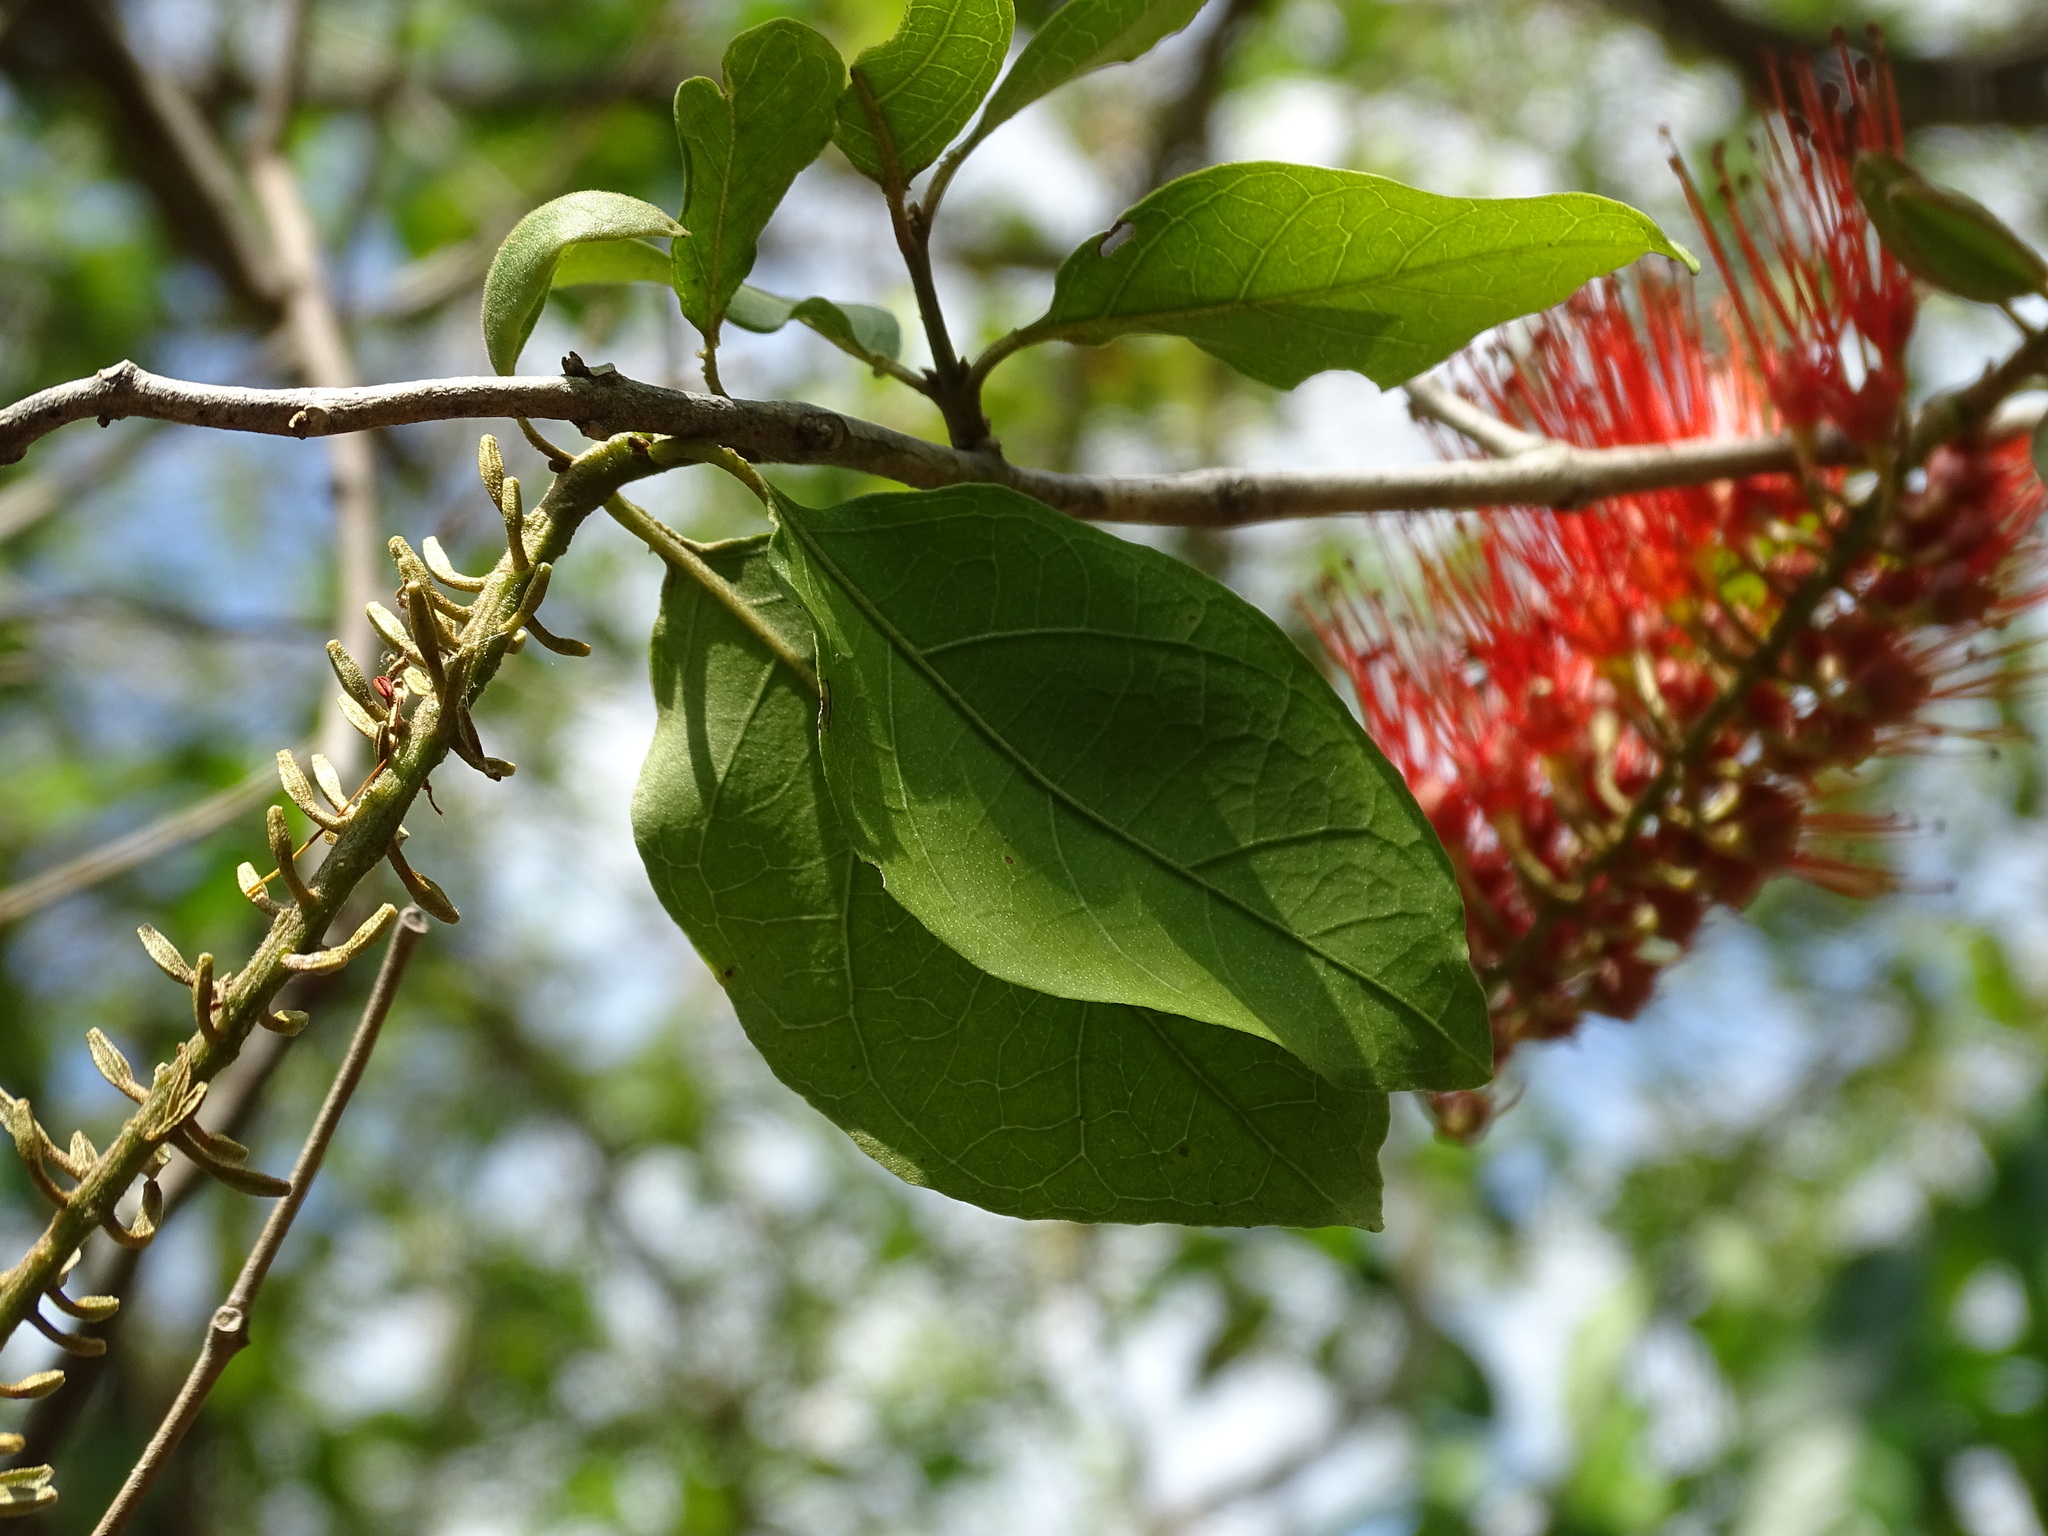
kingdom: Plantae
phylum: Tracheophyta
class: Magnoliopsida
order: Myrtales
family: Combretaceae
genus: Combretum
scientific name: Combretum farinosum
